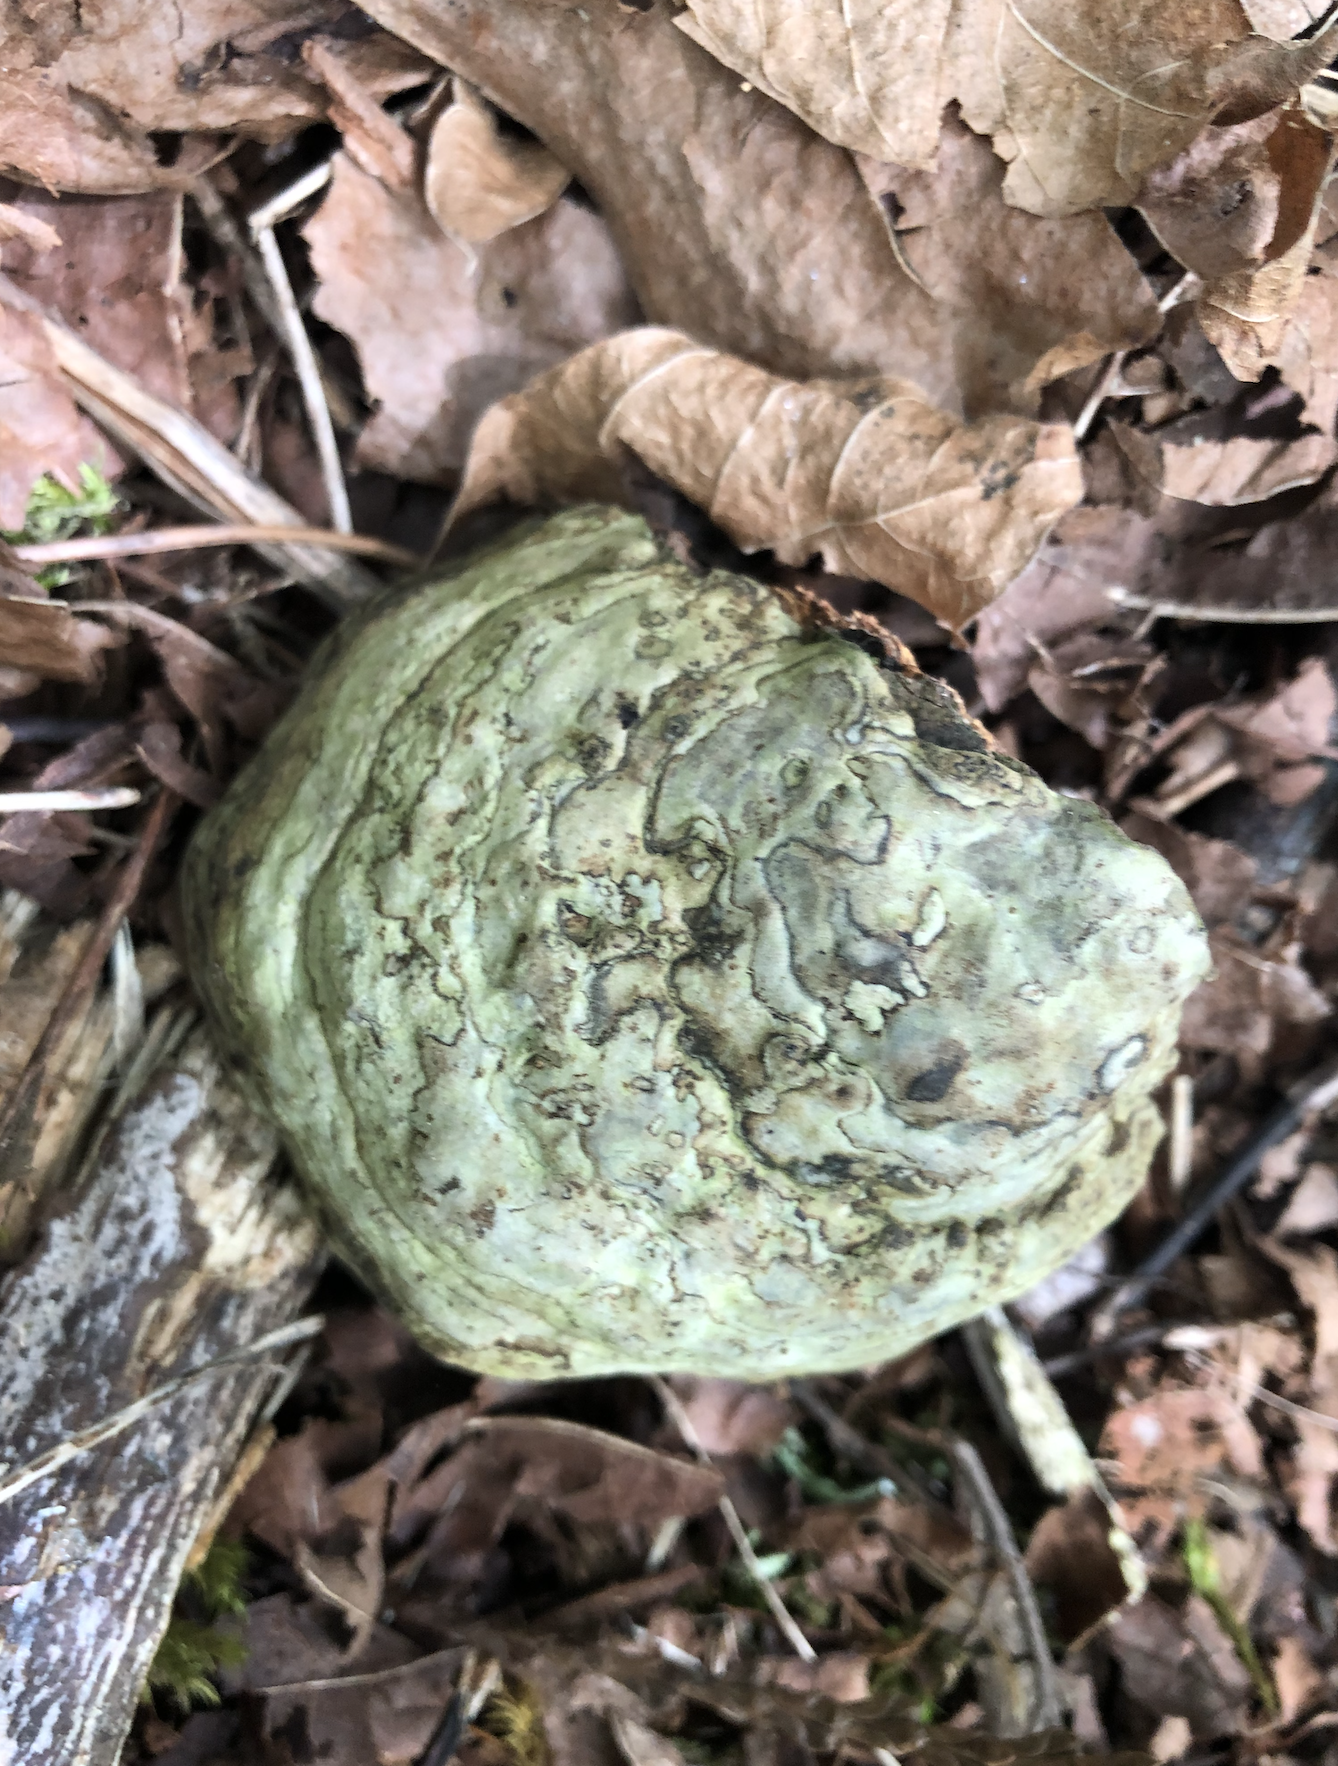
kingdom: Fungi
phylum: Basidiomycota
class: Agaricomycetes
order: Polyporales
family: Polyporaceae
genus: Fomes
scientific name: Fomes fomentarius
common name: Hoof fungus
